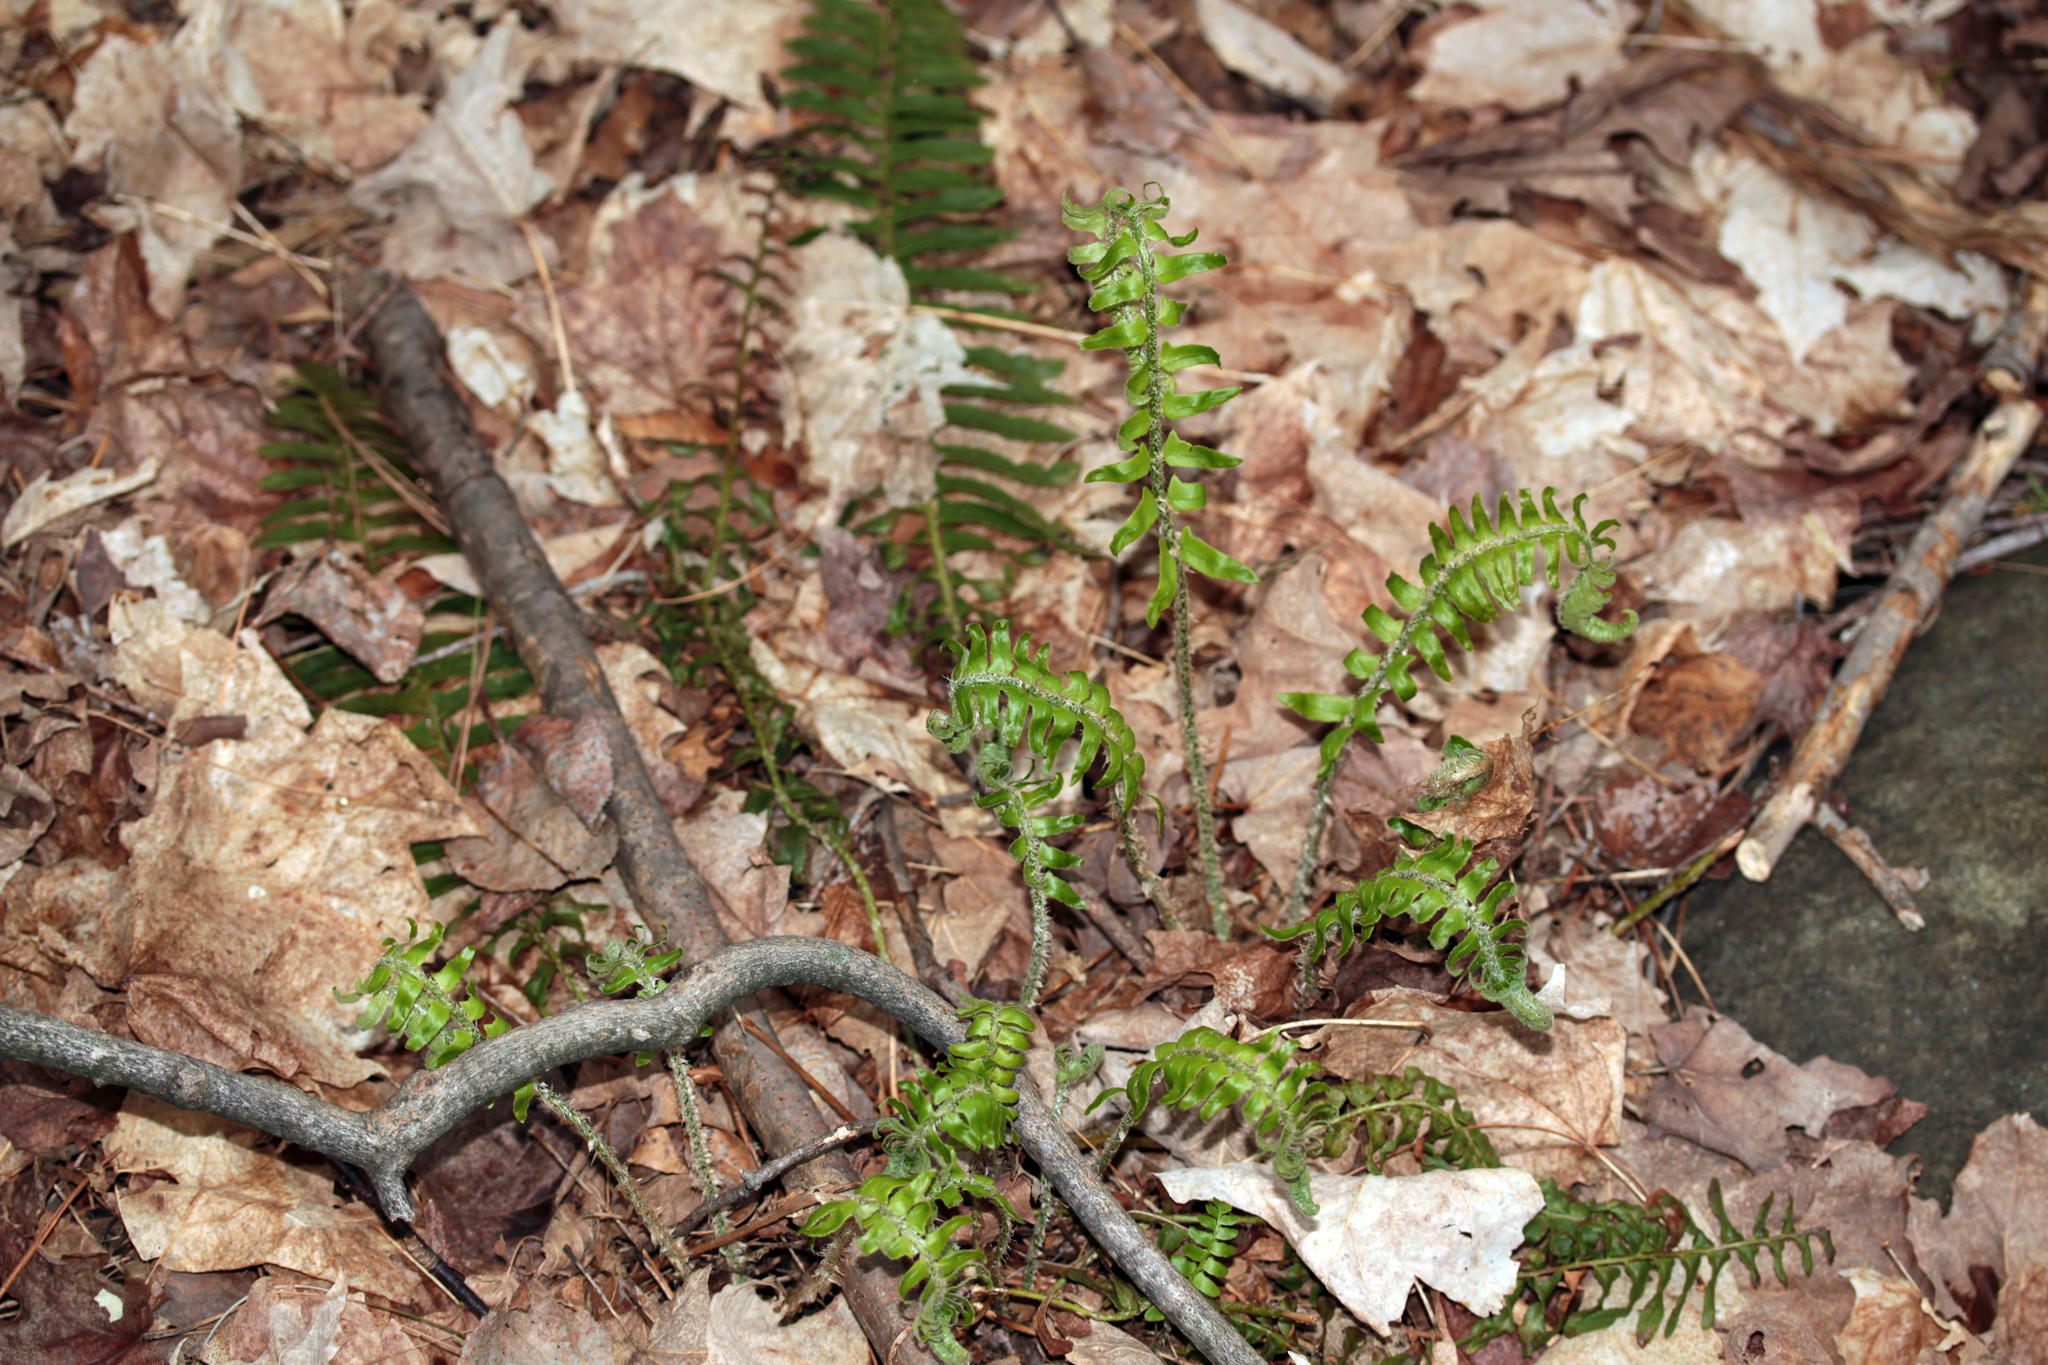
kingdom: Plantae
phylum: Tracheophyta
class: Polypodiopsida
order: Polypodiales
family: Dryopteridaceae
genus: Polystichum
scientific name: Polystichum acrostichoides
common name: Christmas fern
